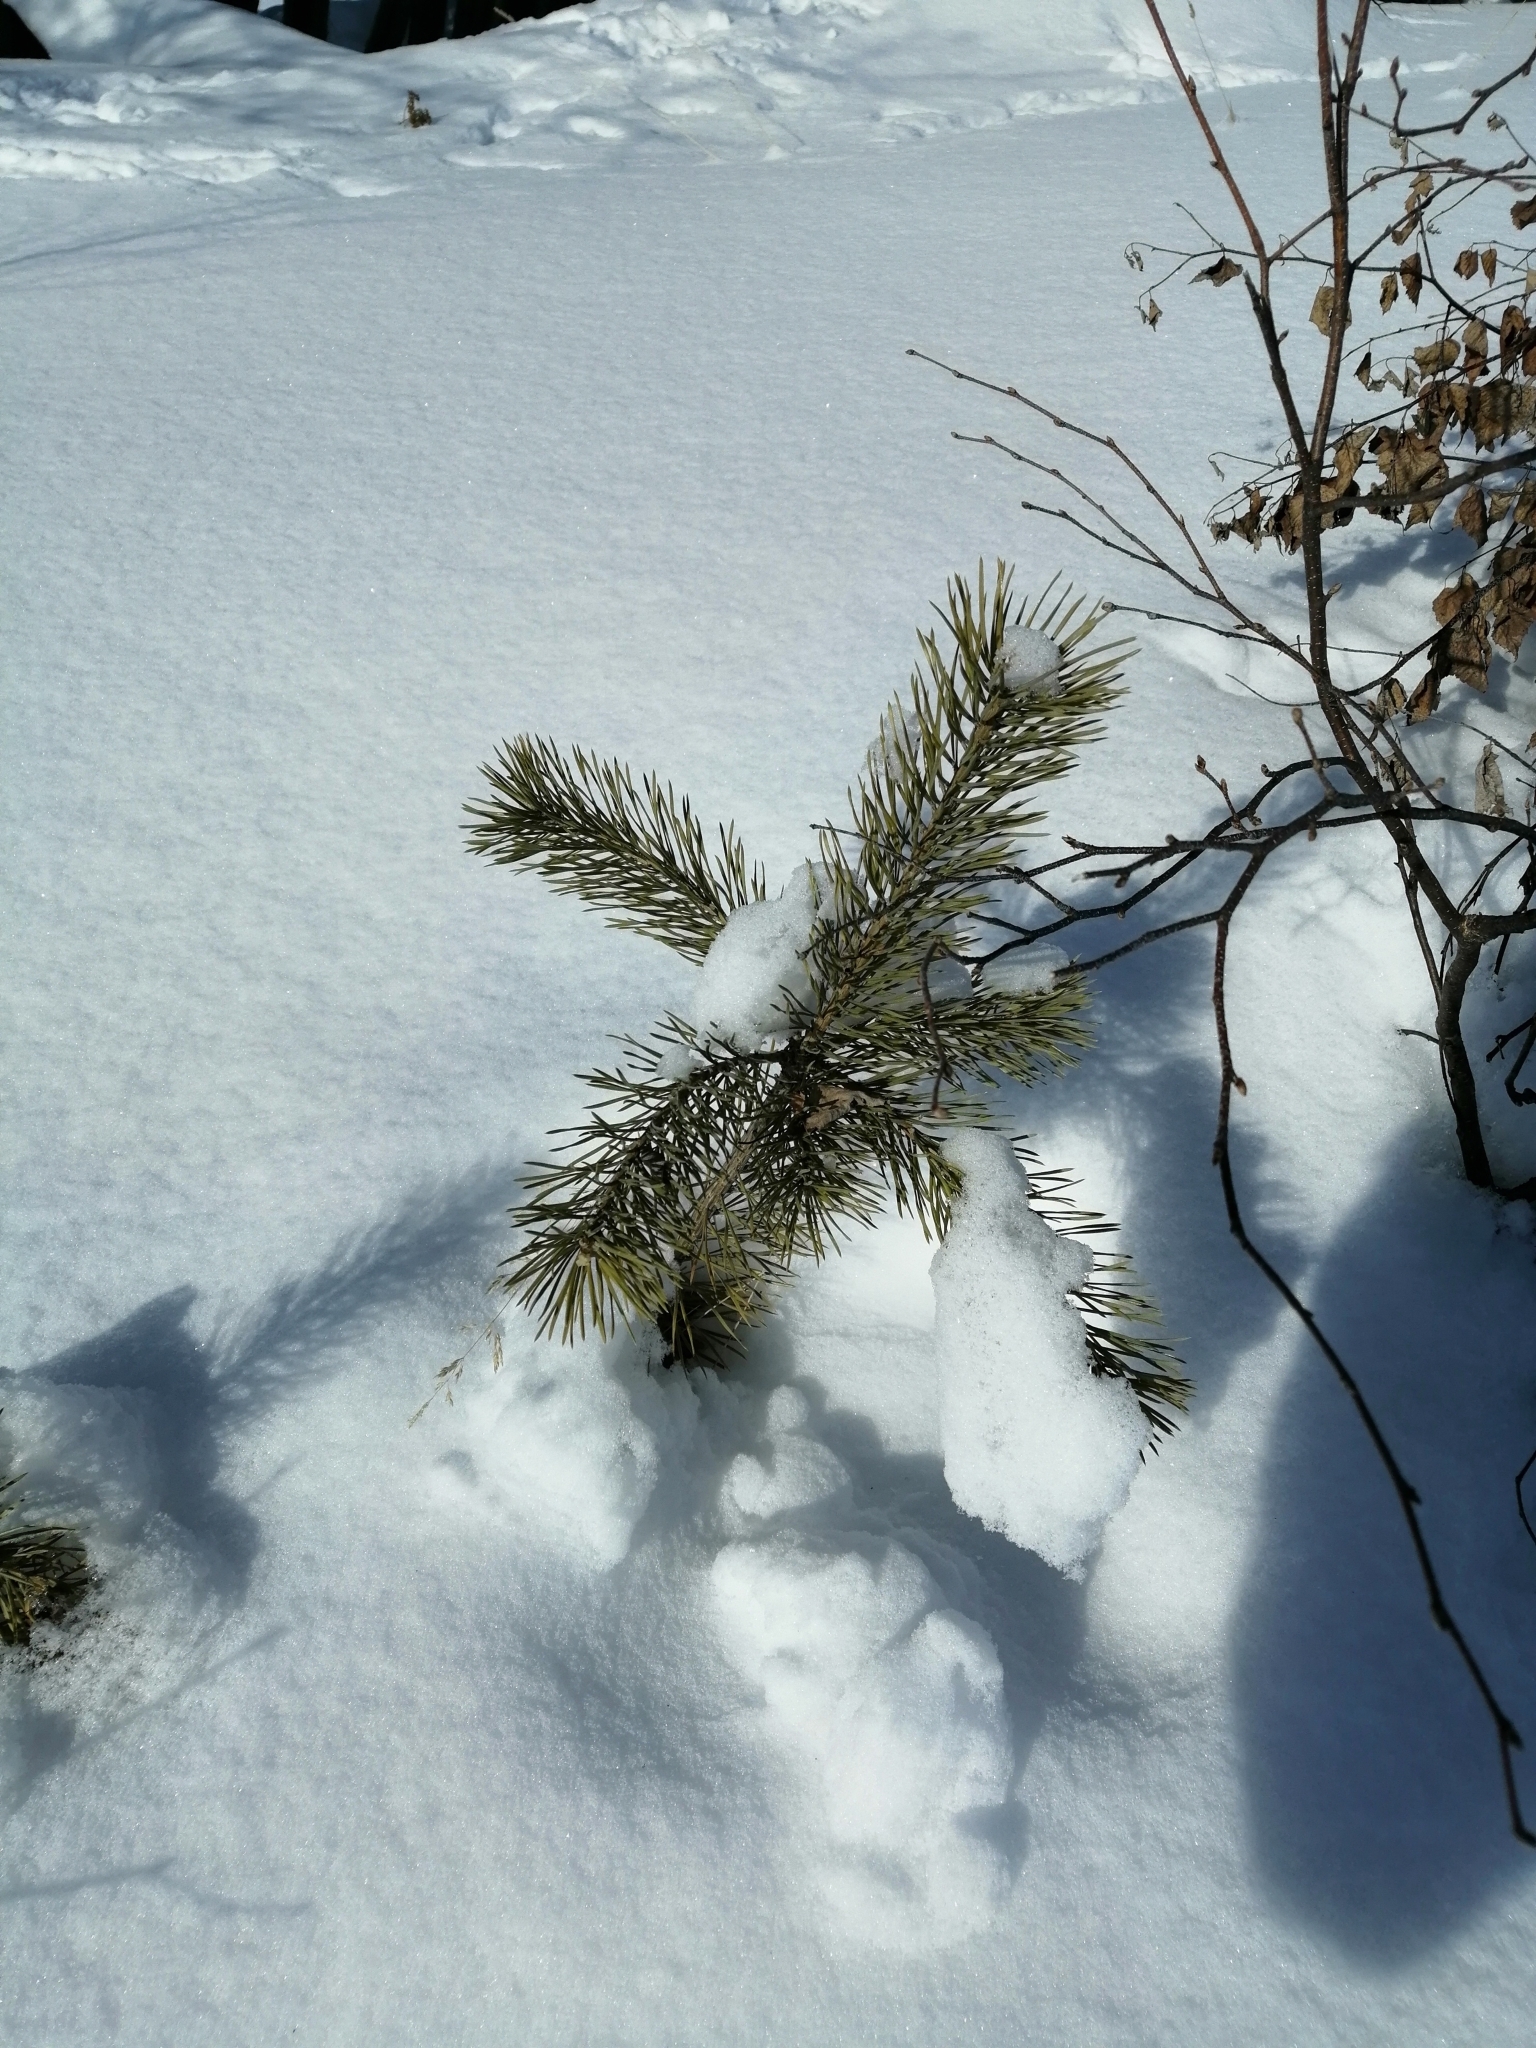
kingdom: Plantae
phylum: Tracheophyta
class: Pinopsida
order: Pinales
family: Pinaceae
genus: Pinus
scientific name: Pinus sylvestris
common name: Scots pine
